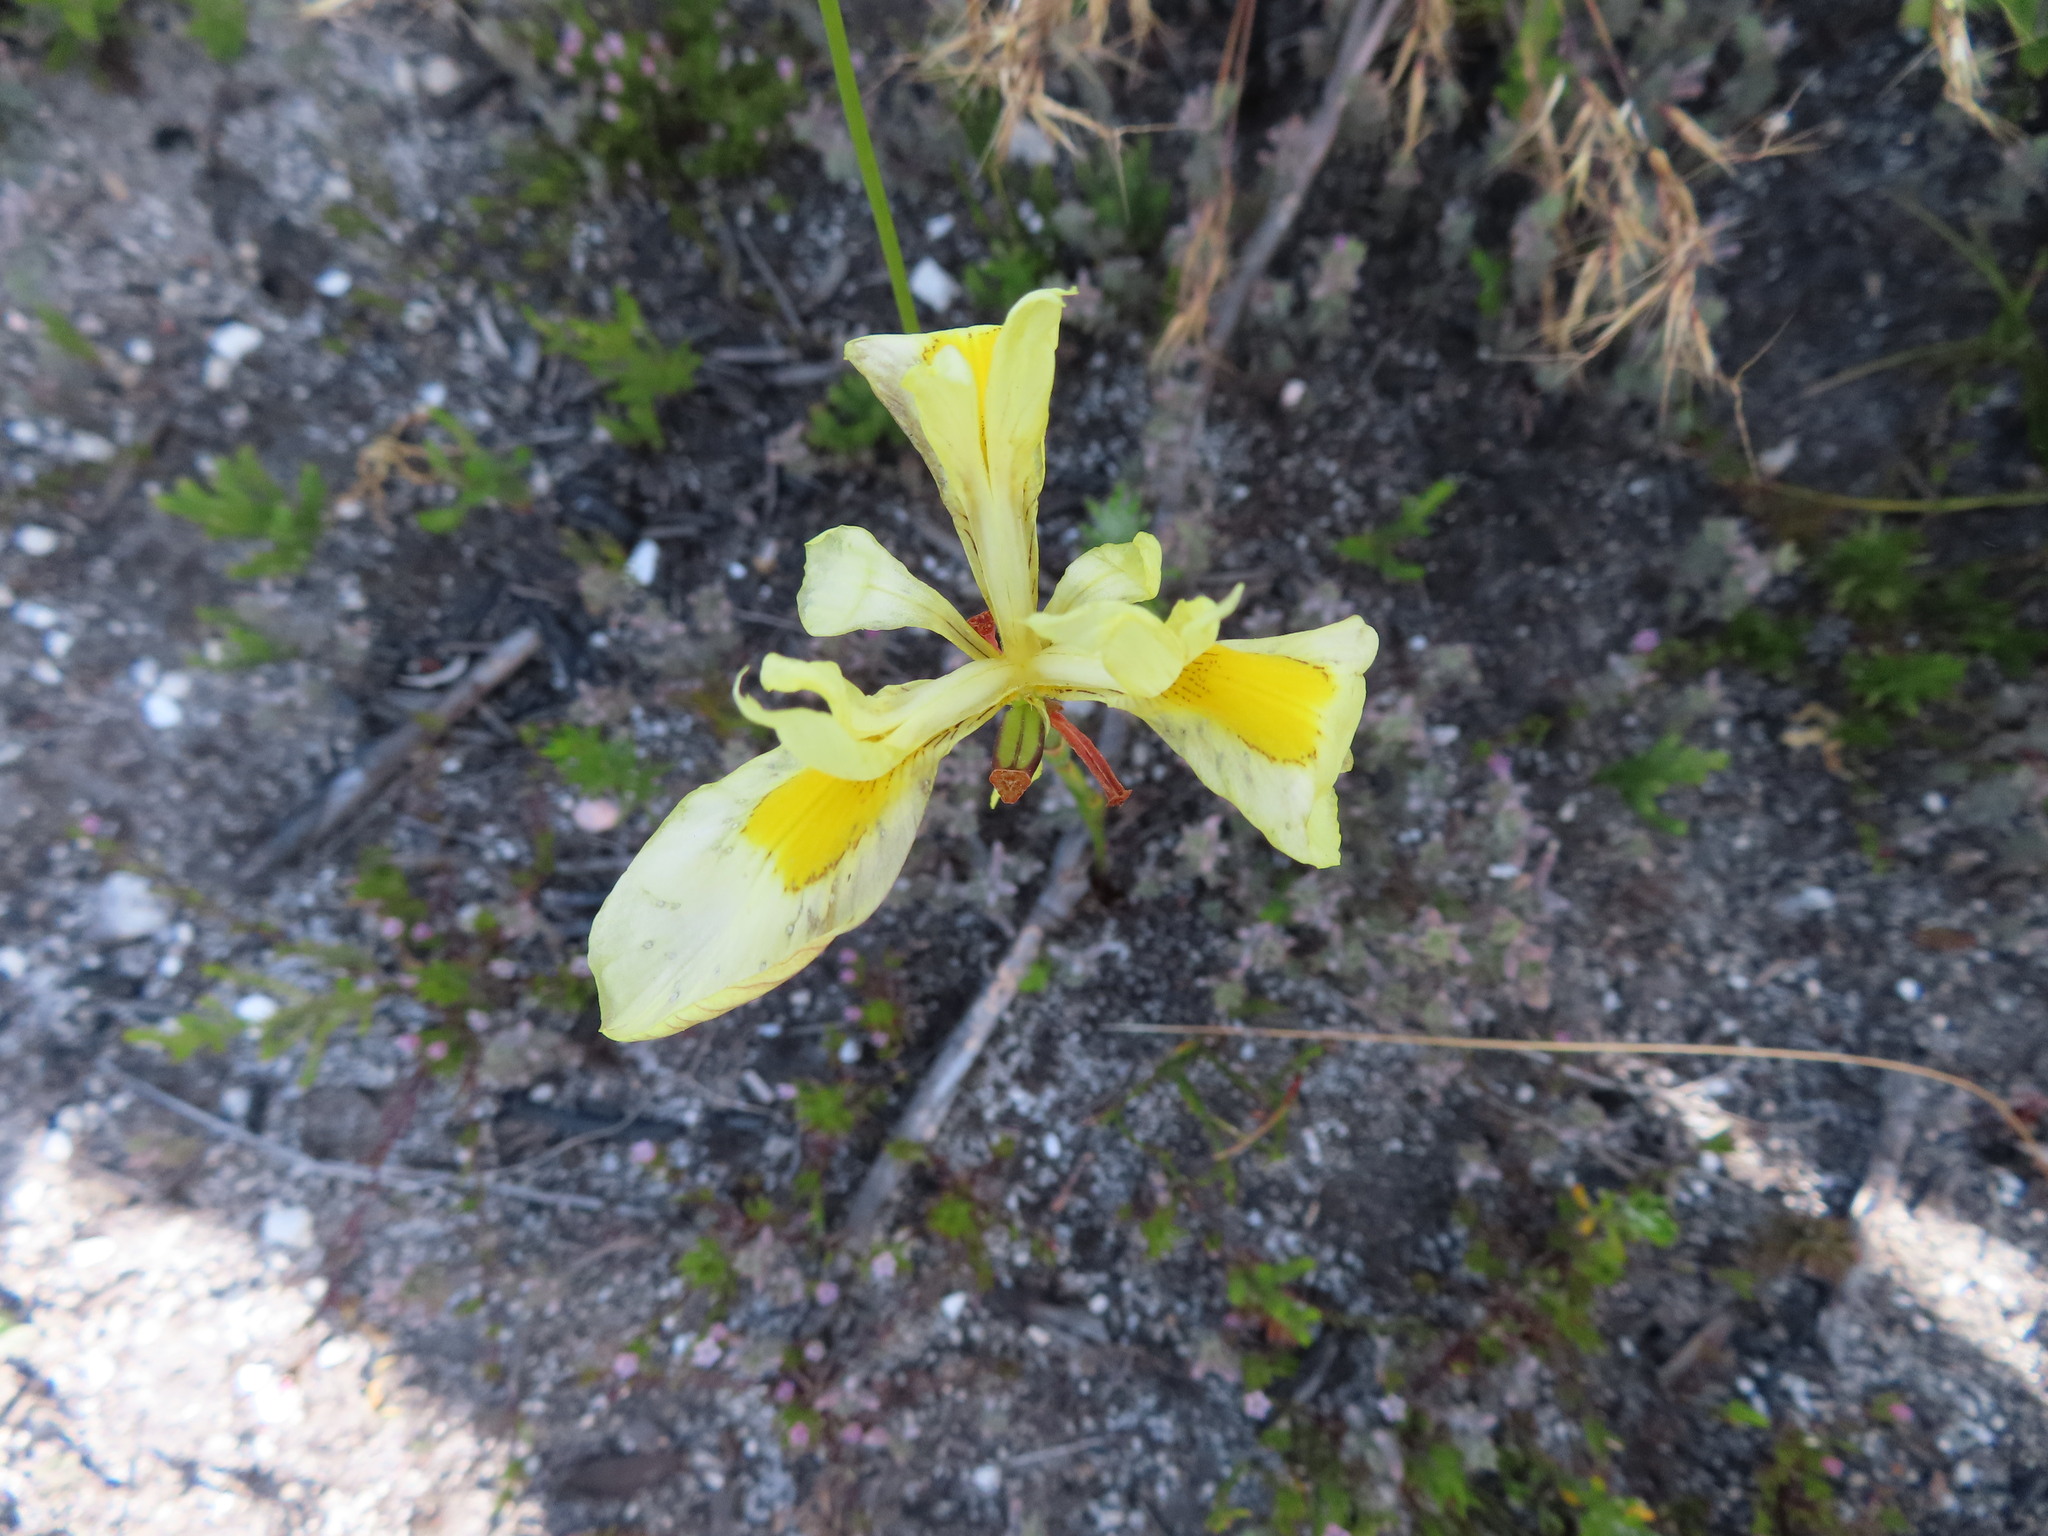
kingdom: Plantae
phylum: Tracheophyta
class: Liliopsida
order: Asparagales
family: Iridaceae
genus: Moraea
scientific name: Moraea anomala
